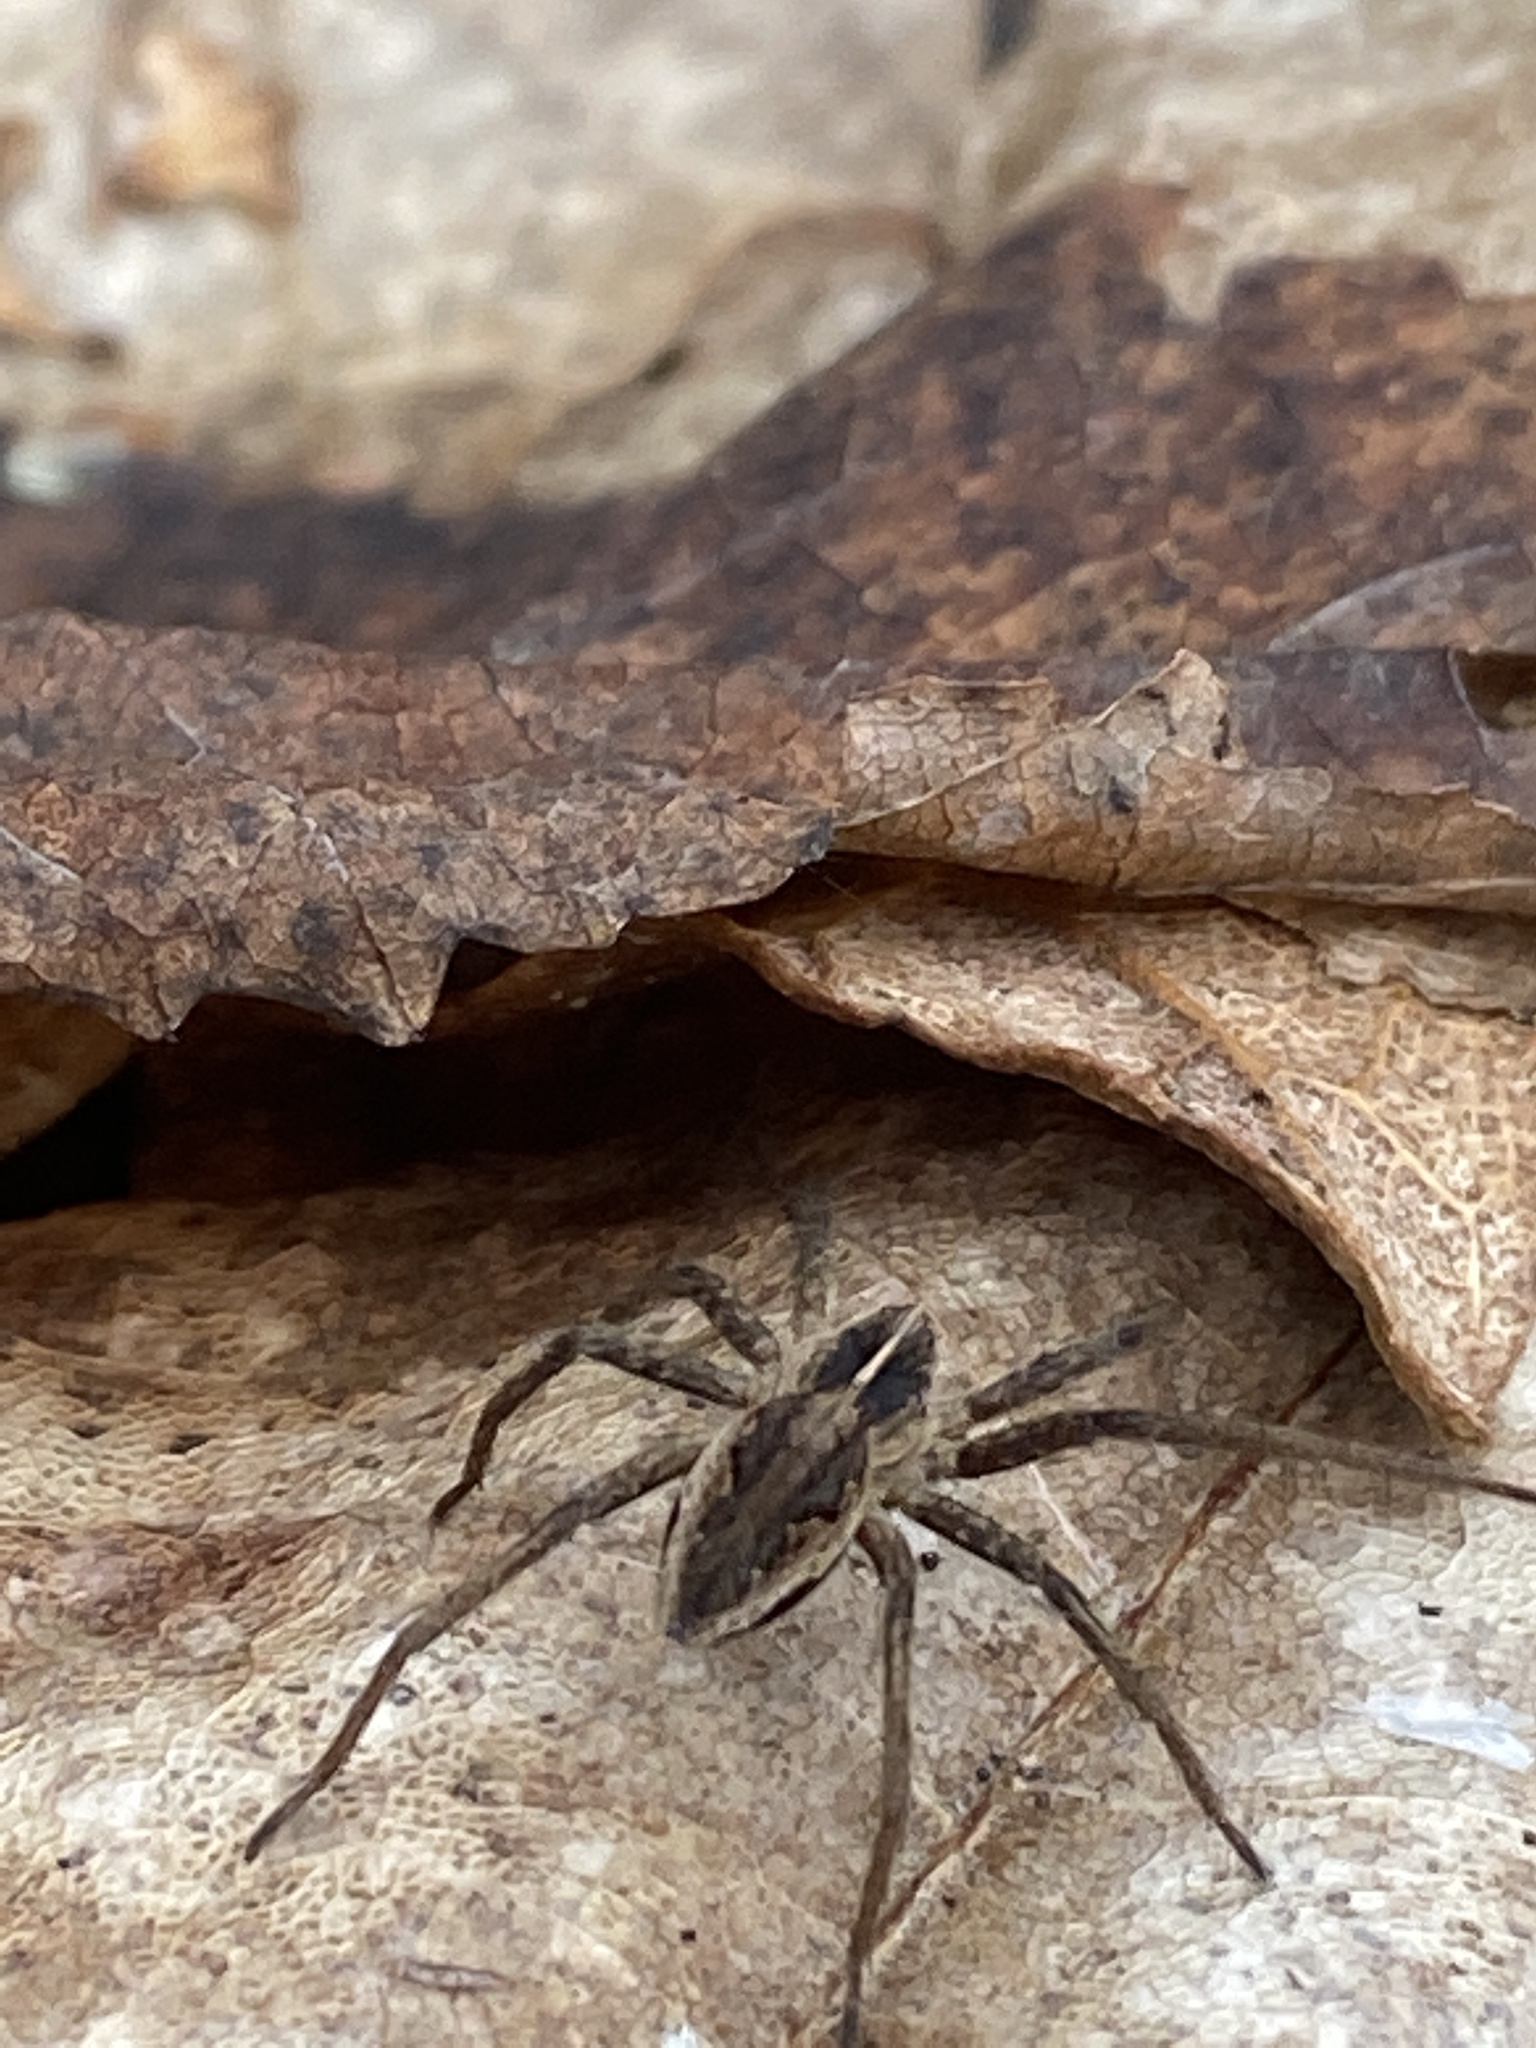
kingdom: Animalia
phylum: Arthropoda
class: Arachnida
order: Araneae
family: Pisauridae
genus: Pisaura
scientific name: Pisaura mirabilis
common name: Tent spider
